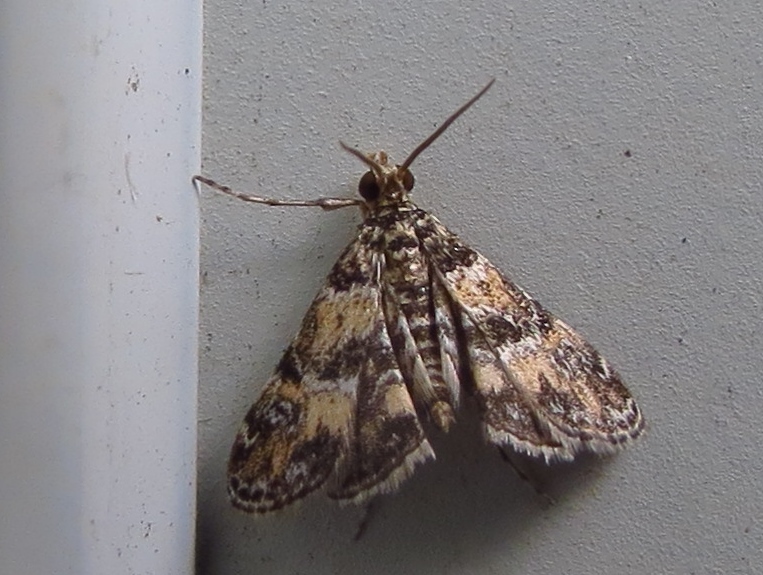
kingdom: Animalia
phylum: Arthropoda
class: Insecta
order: Lepidoptera
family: Crambidae
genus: Elophila
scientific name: Elophila obliteralis
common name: Waterlily leafcutter moth
